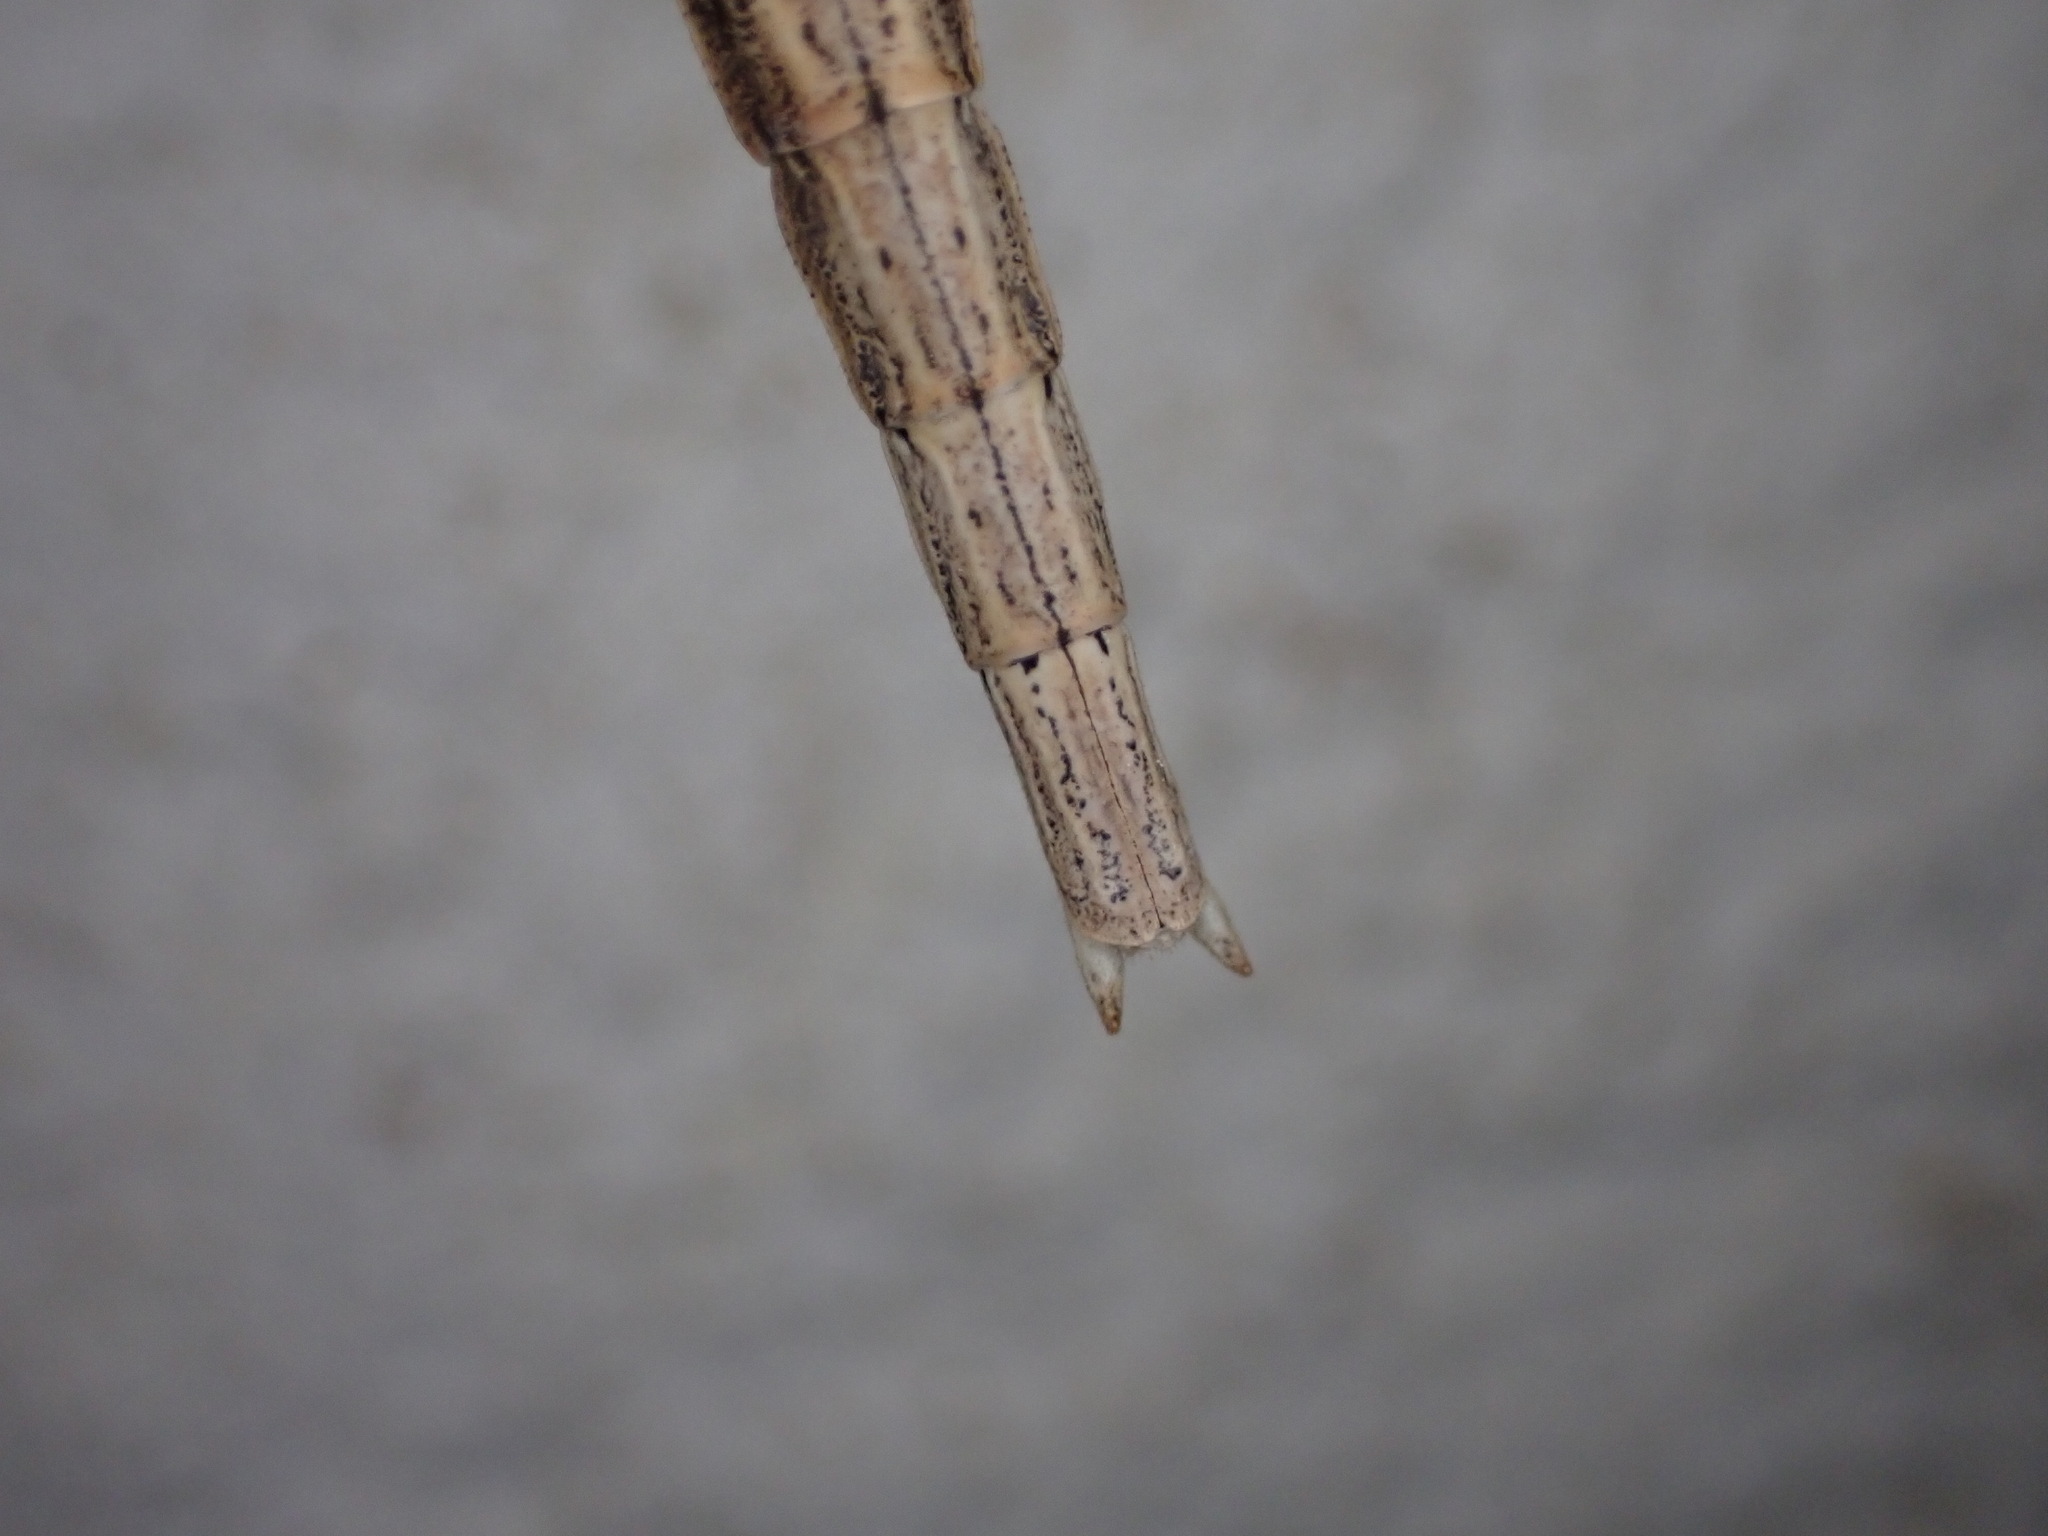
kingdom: Animalia
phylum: Arthropoda
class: Insecta
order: Phasmida
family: Bacillidae
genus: Clonopsis
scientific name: Clonopsis gallica
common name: French stick insect
